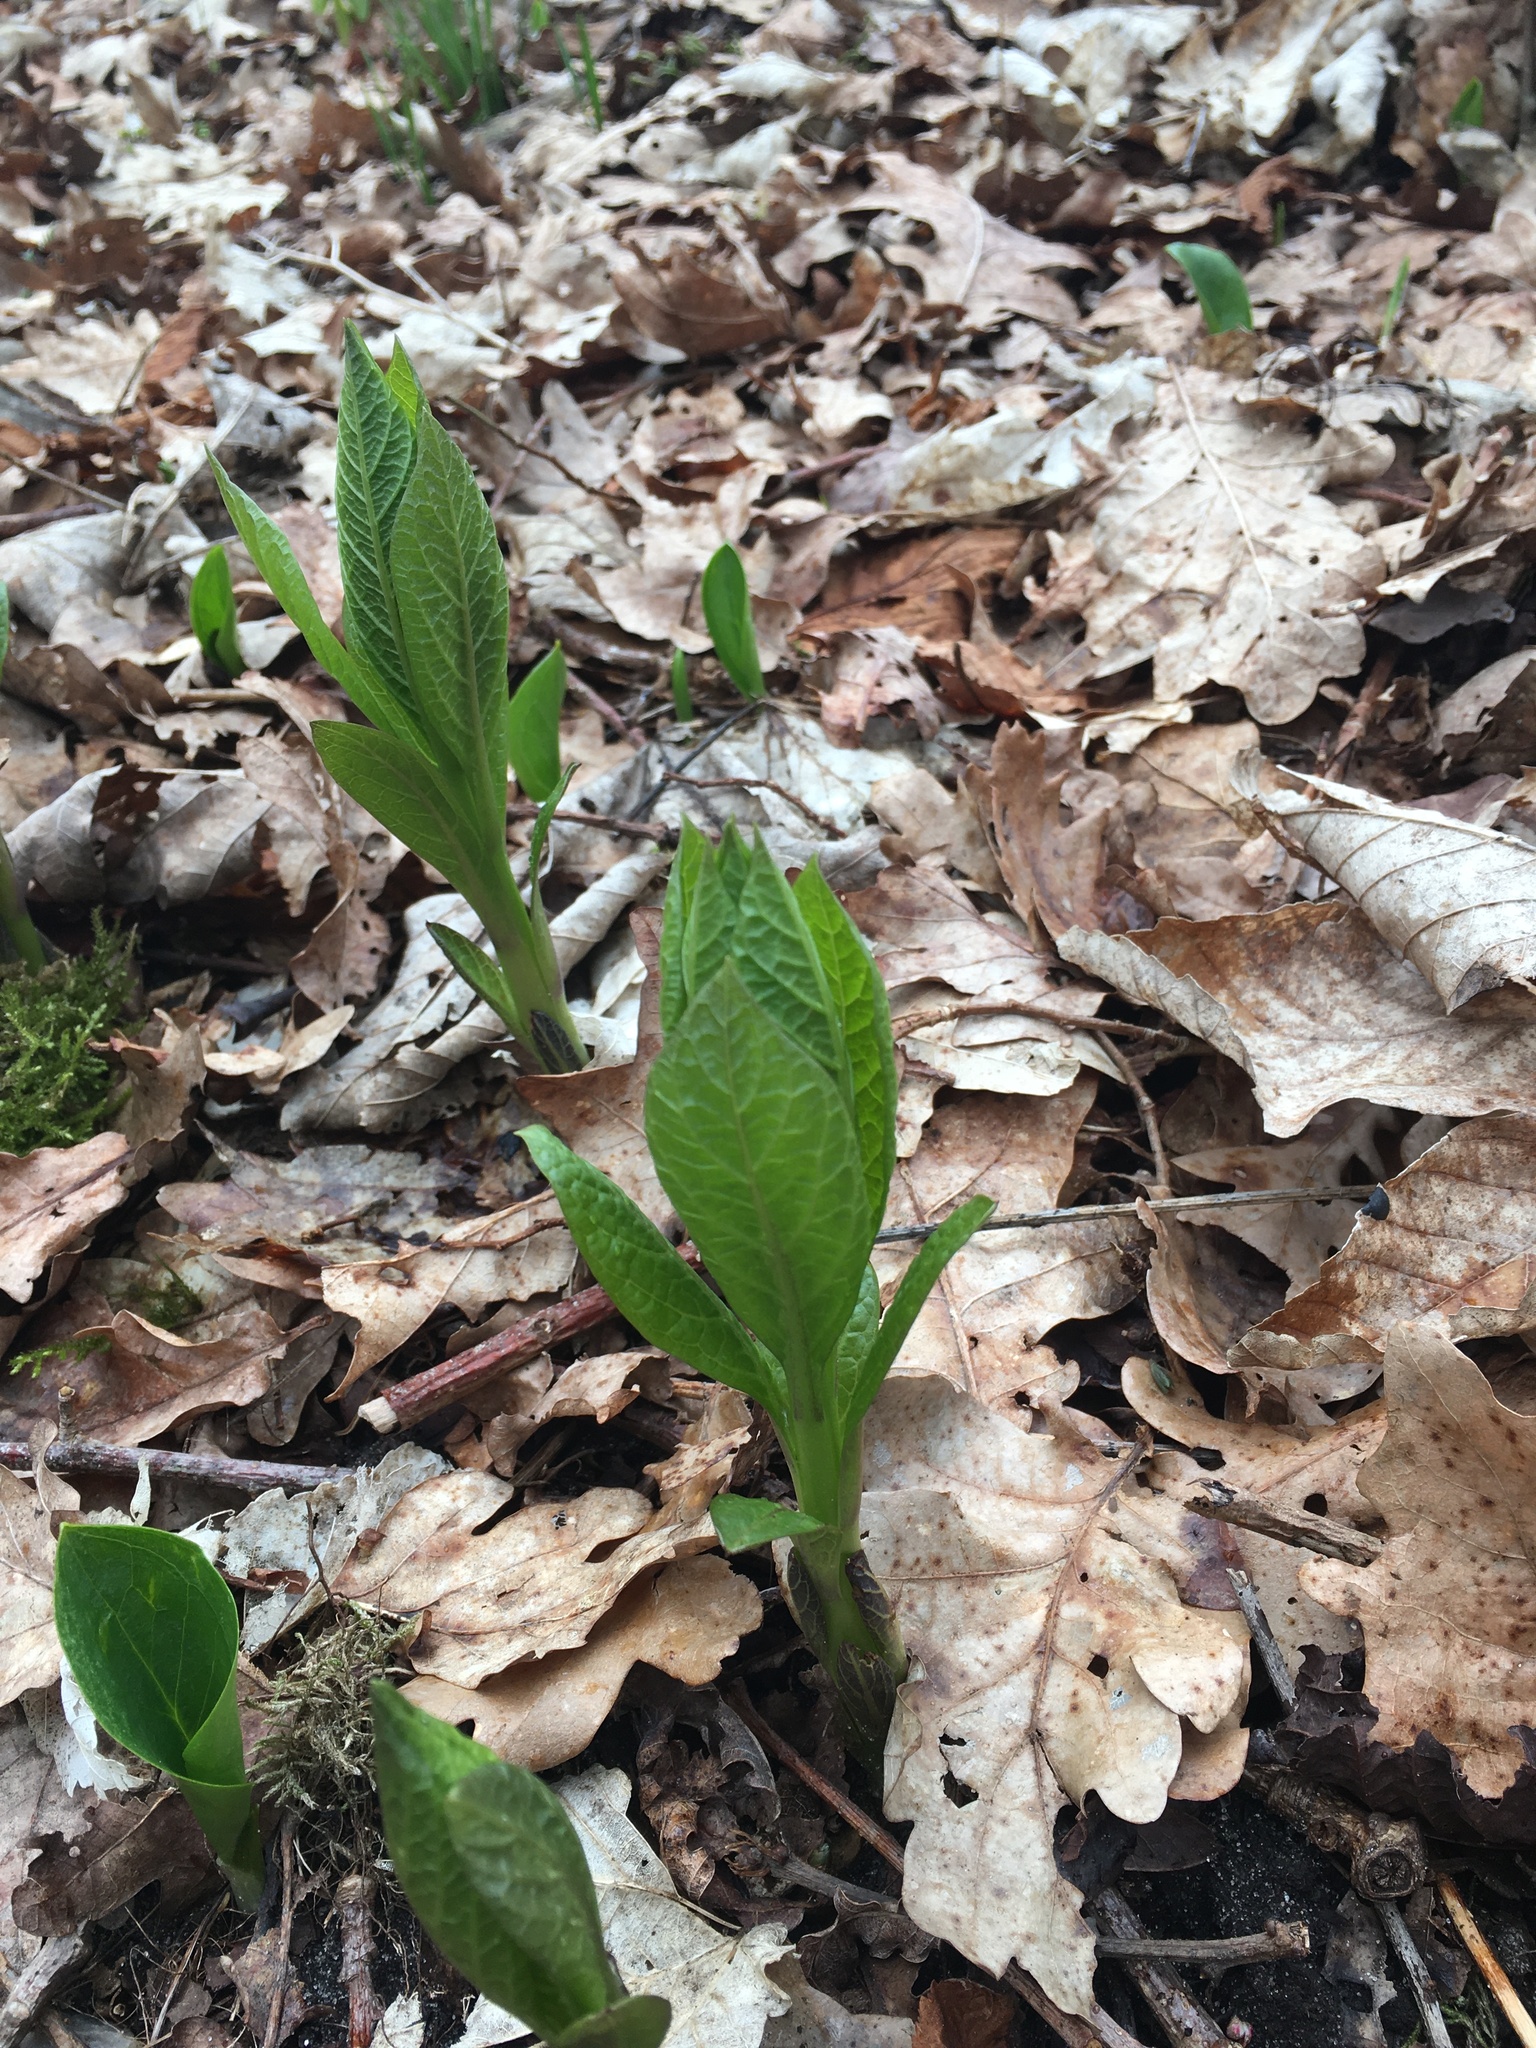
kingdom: Plantae
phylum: Tracheophyta
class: Magnoliopsida
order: Solanales
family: Solanaceae
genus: Scopolia
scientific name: Scopolia carniolica
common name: Scopolia
